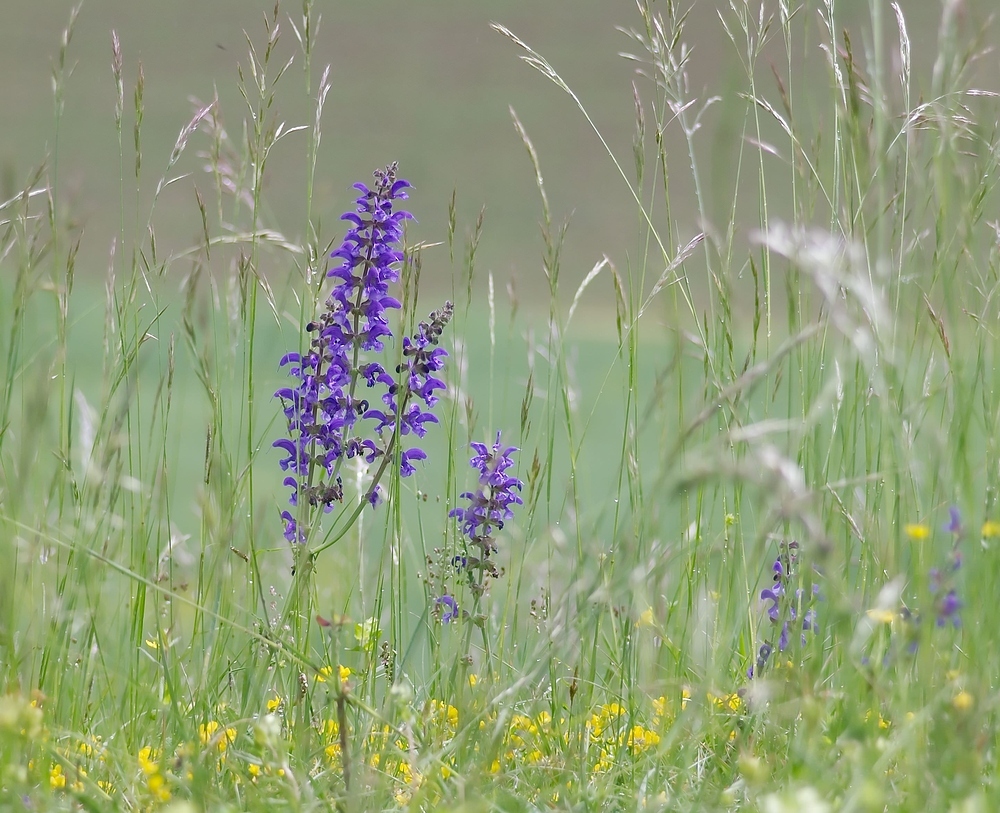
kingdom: Plantae
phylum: Tracheophyta
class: Magnoliopsida
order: Lamiales
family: Lamiaceae
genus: Salvia
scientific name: Salvia pratensis
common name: Meadow sage
